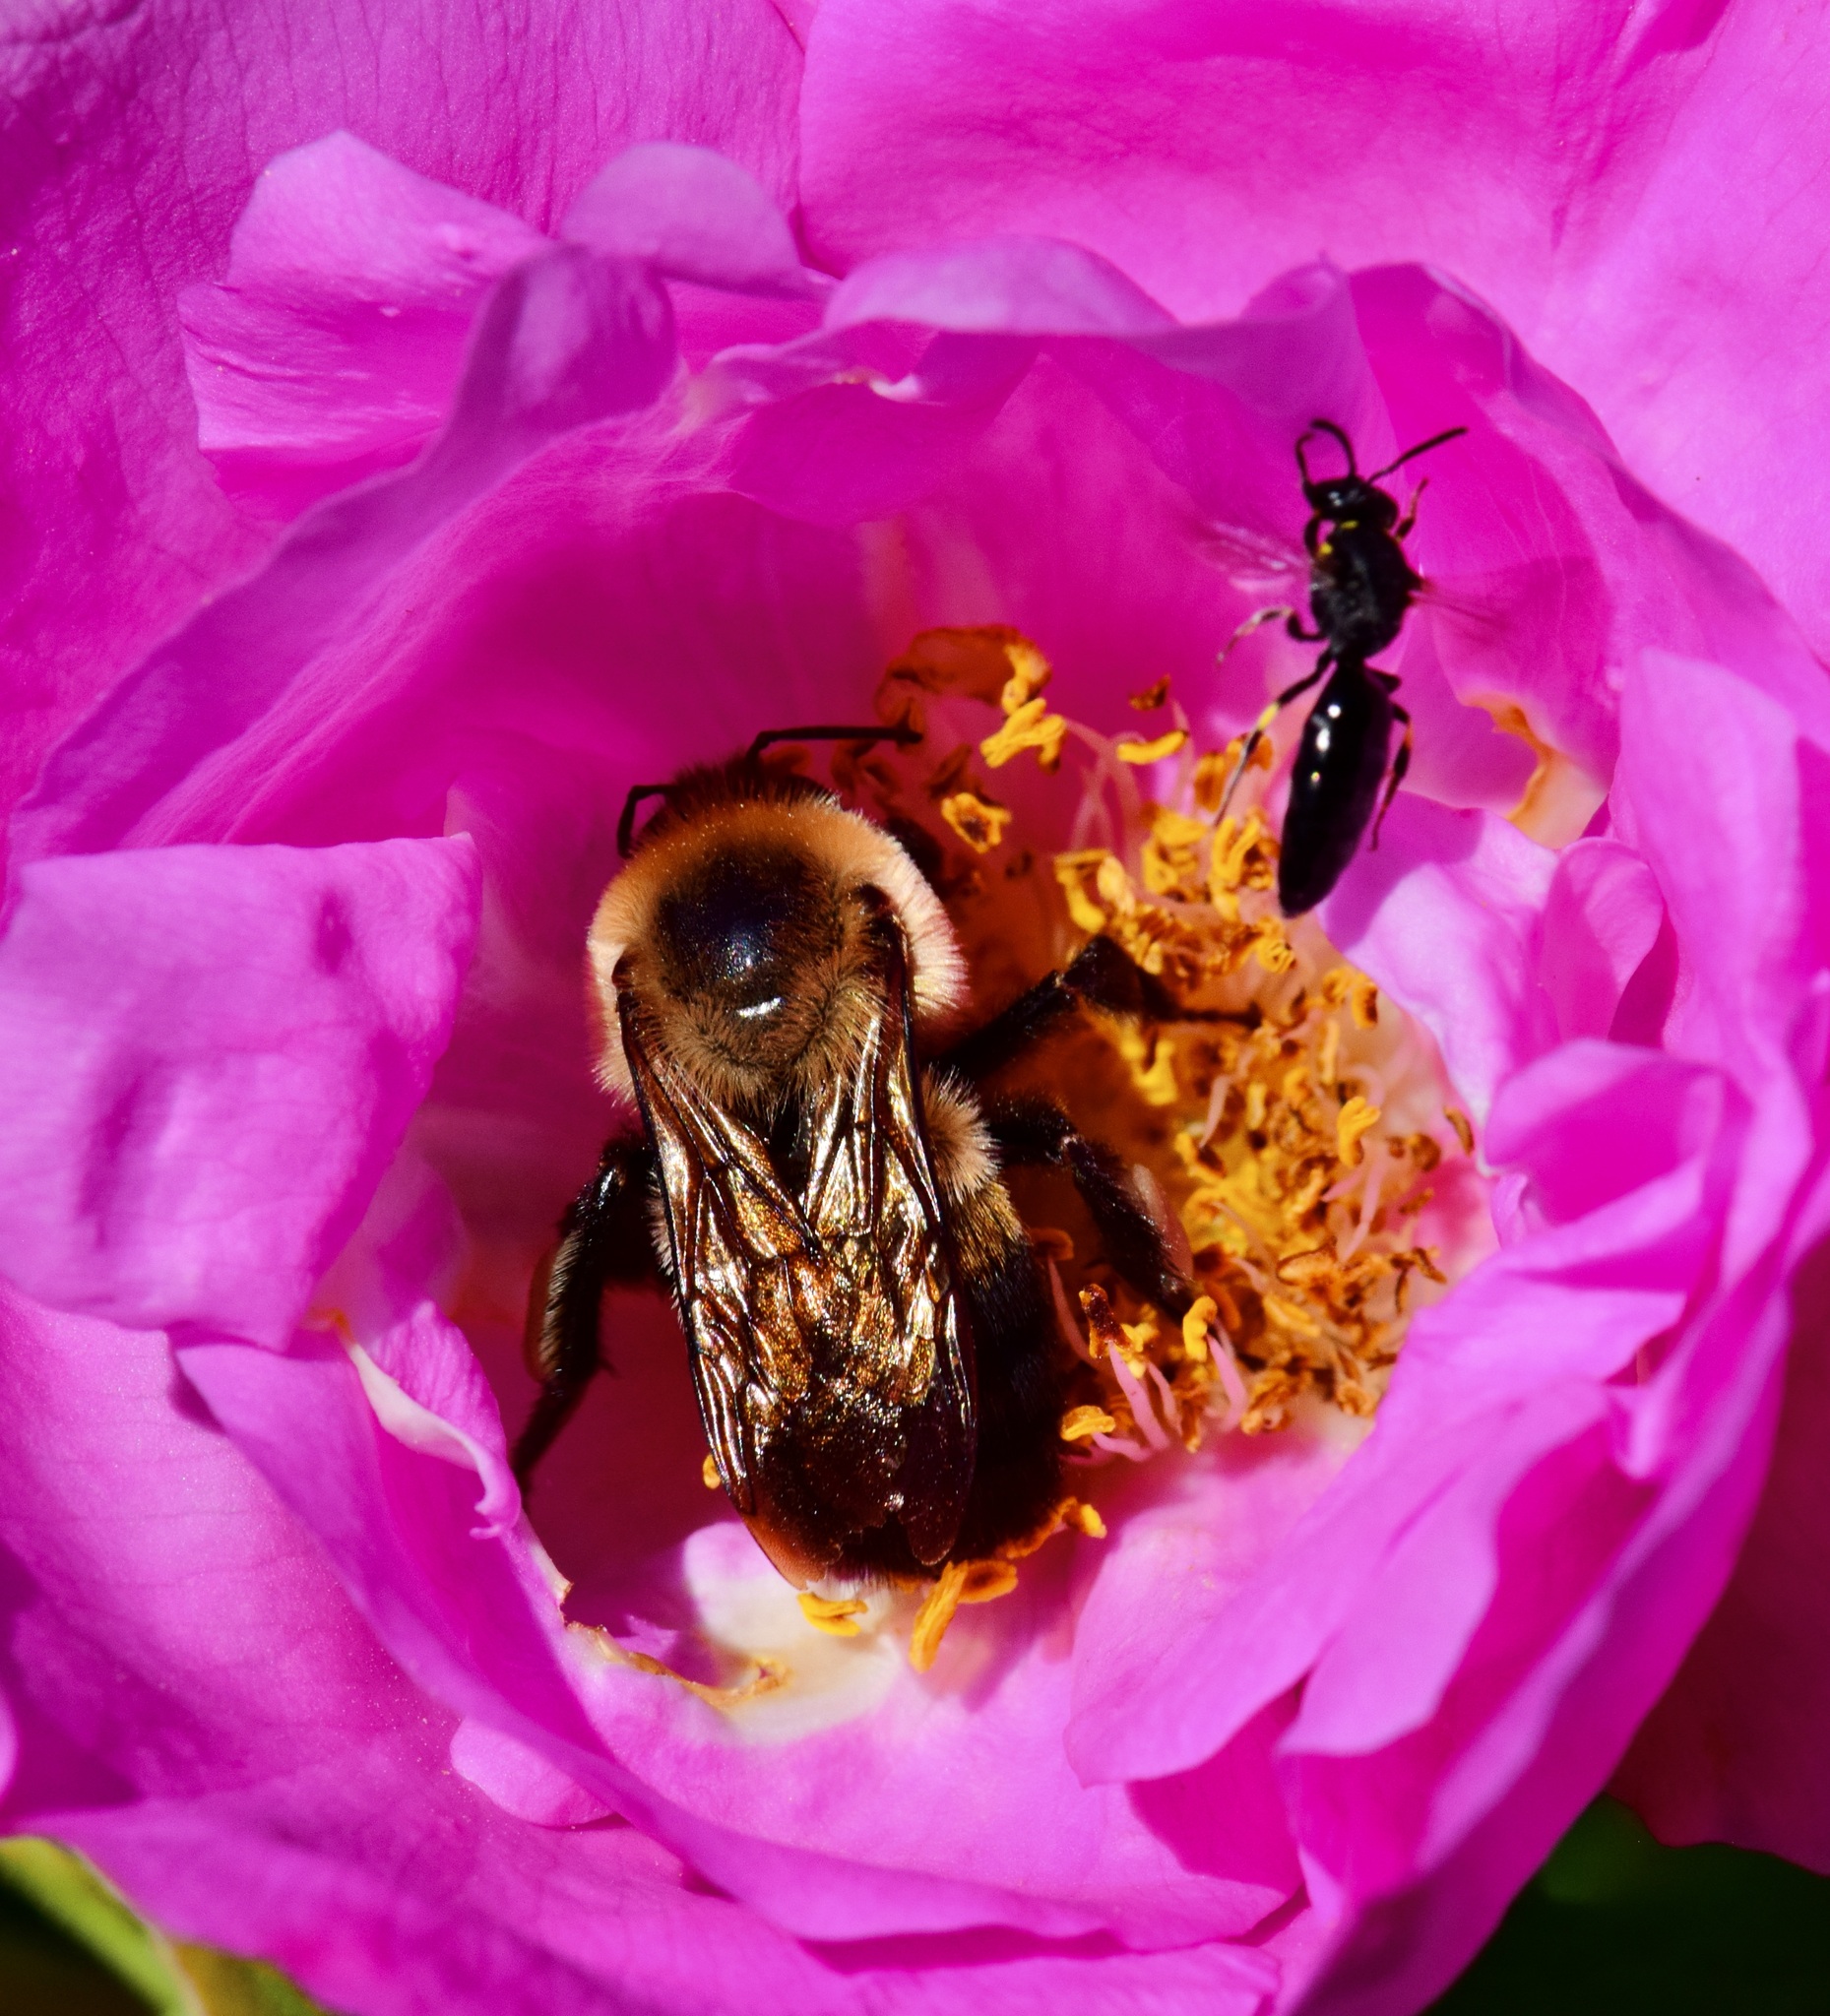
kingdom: Animalia
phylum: Arthropoda
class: Insecta
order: Hymenoptera
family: Apidae
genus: Bombus
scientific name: Bombus griseocollis
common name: Brown-belted bumble bee
